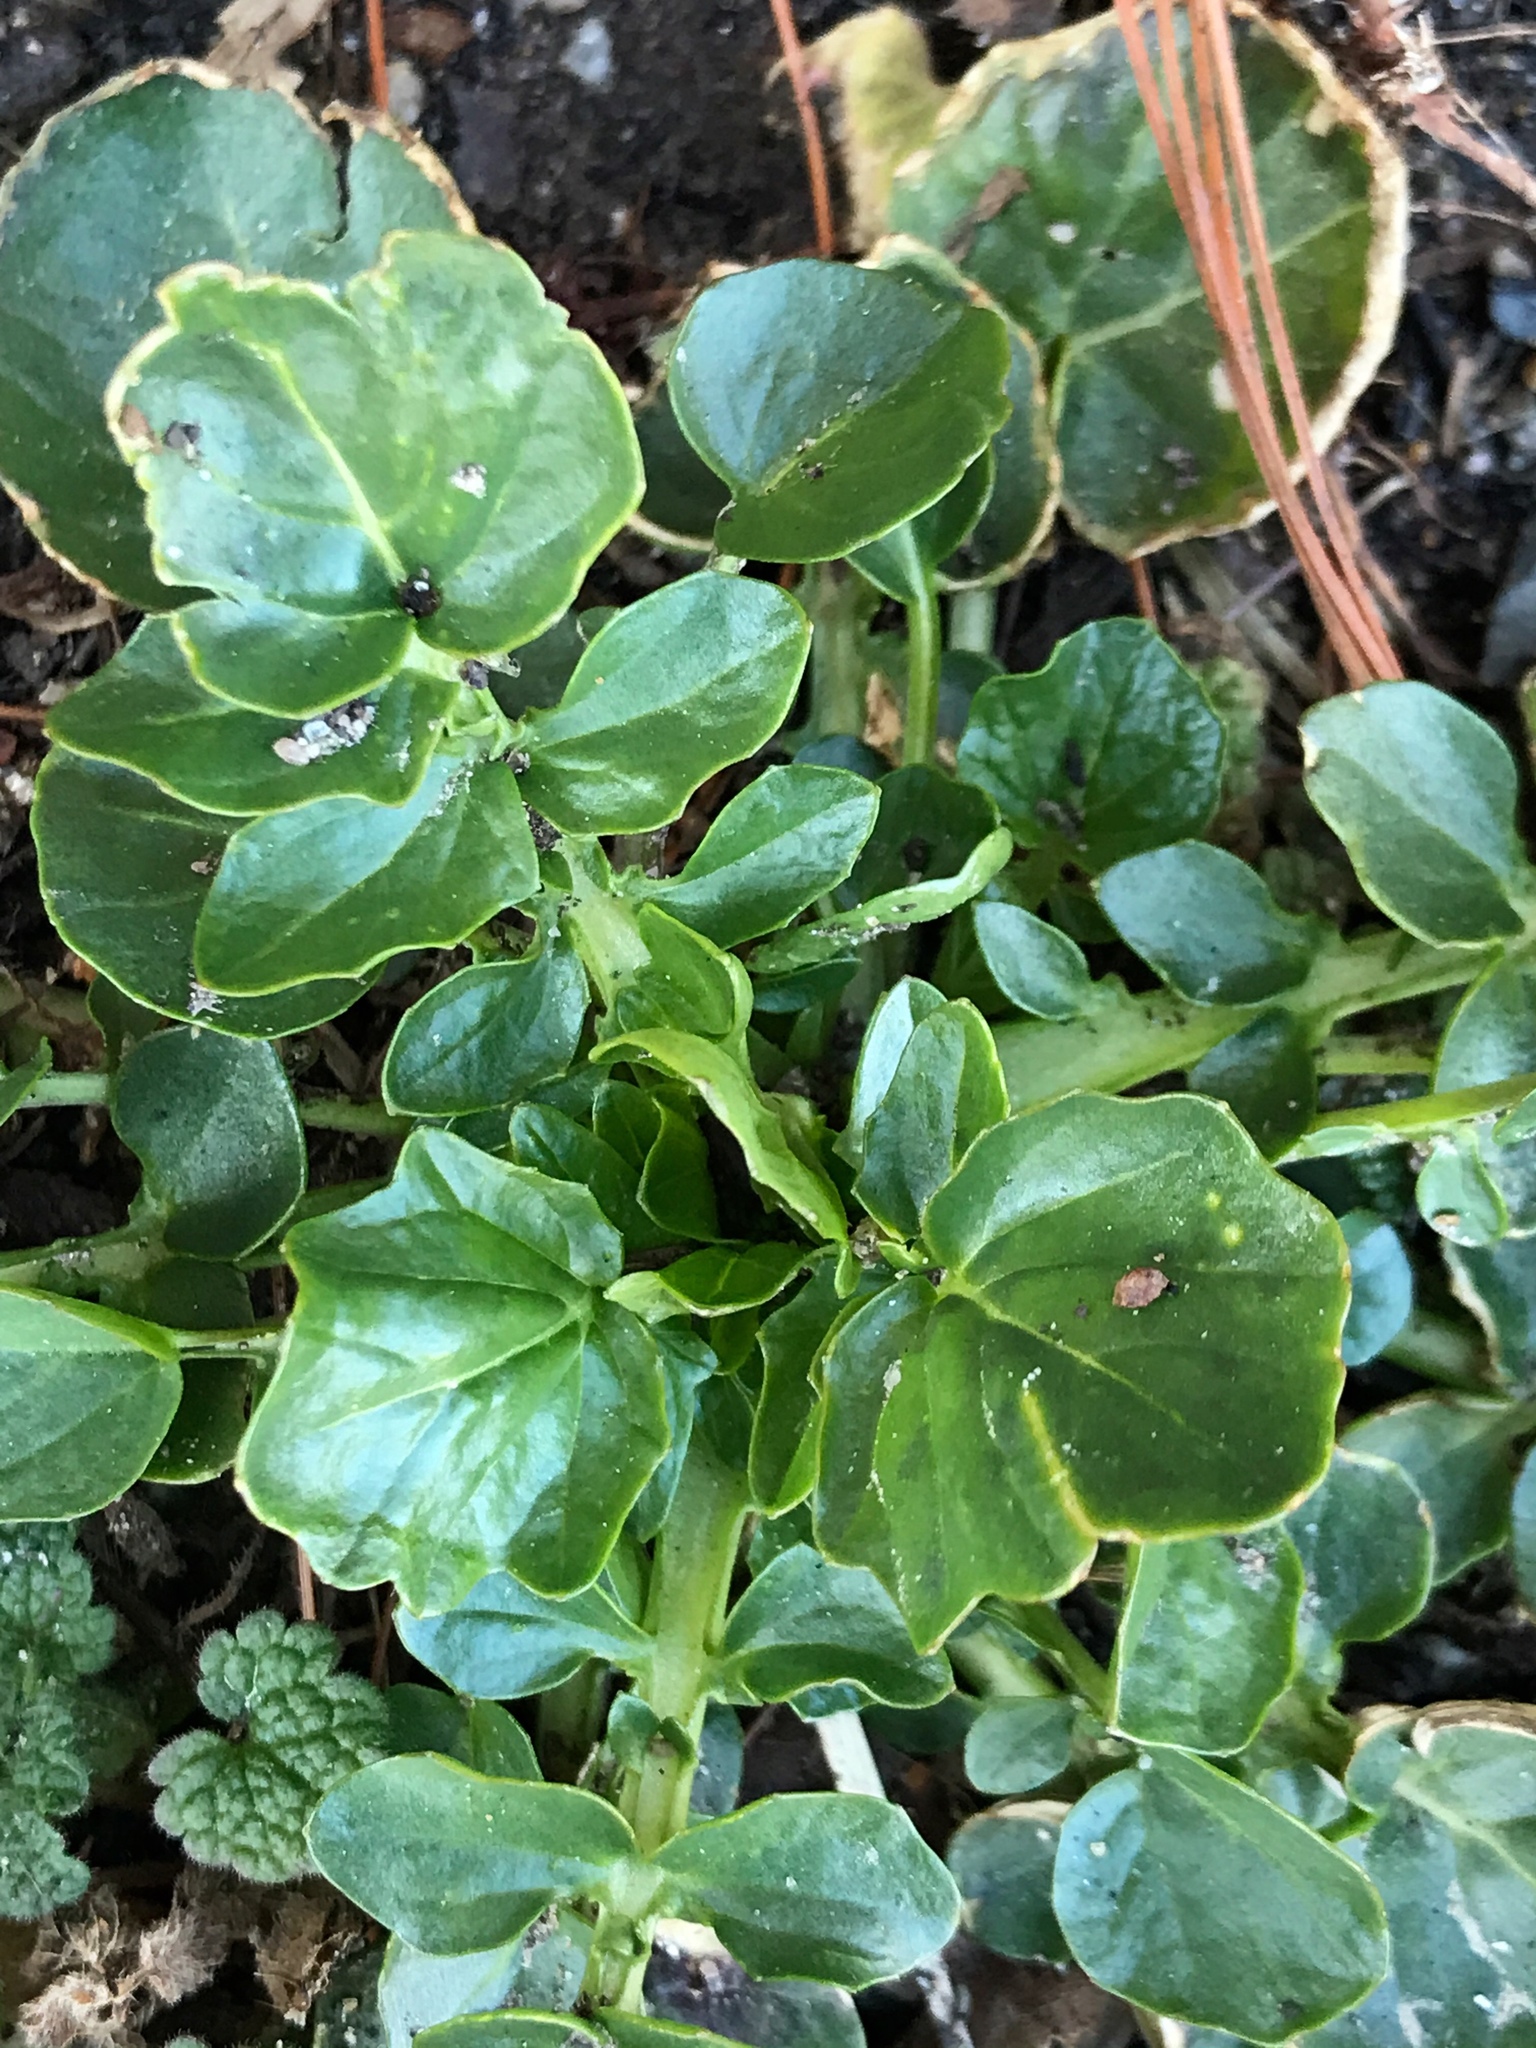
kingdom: Plantae
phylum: Tracheophyta
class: Magnoliopsida
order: Brassicales
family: Brassicaceae
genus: Barbarea
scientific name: Barbarea vulgaris
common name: Cressy-greens
